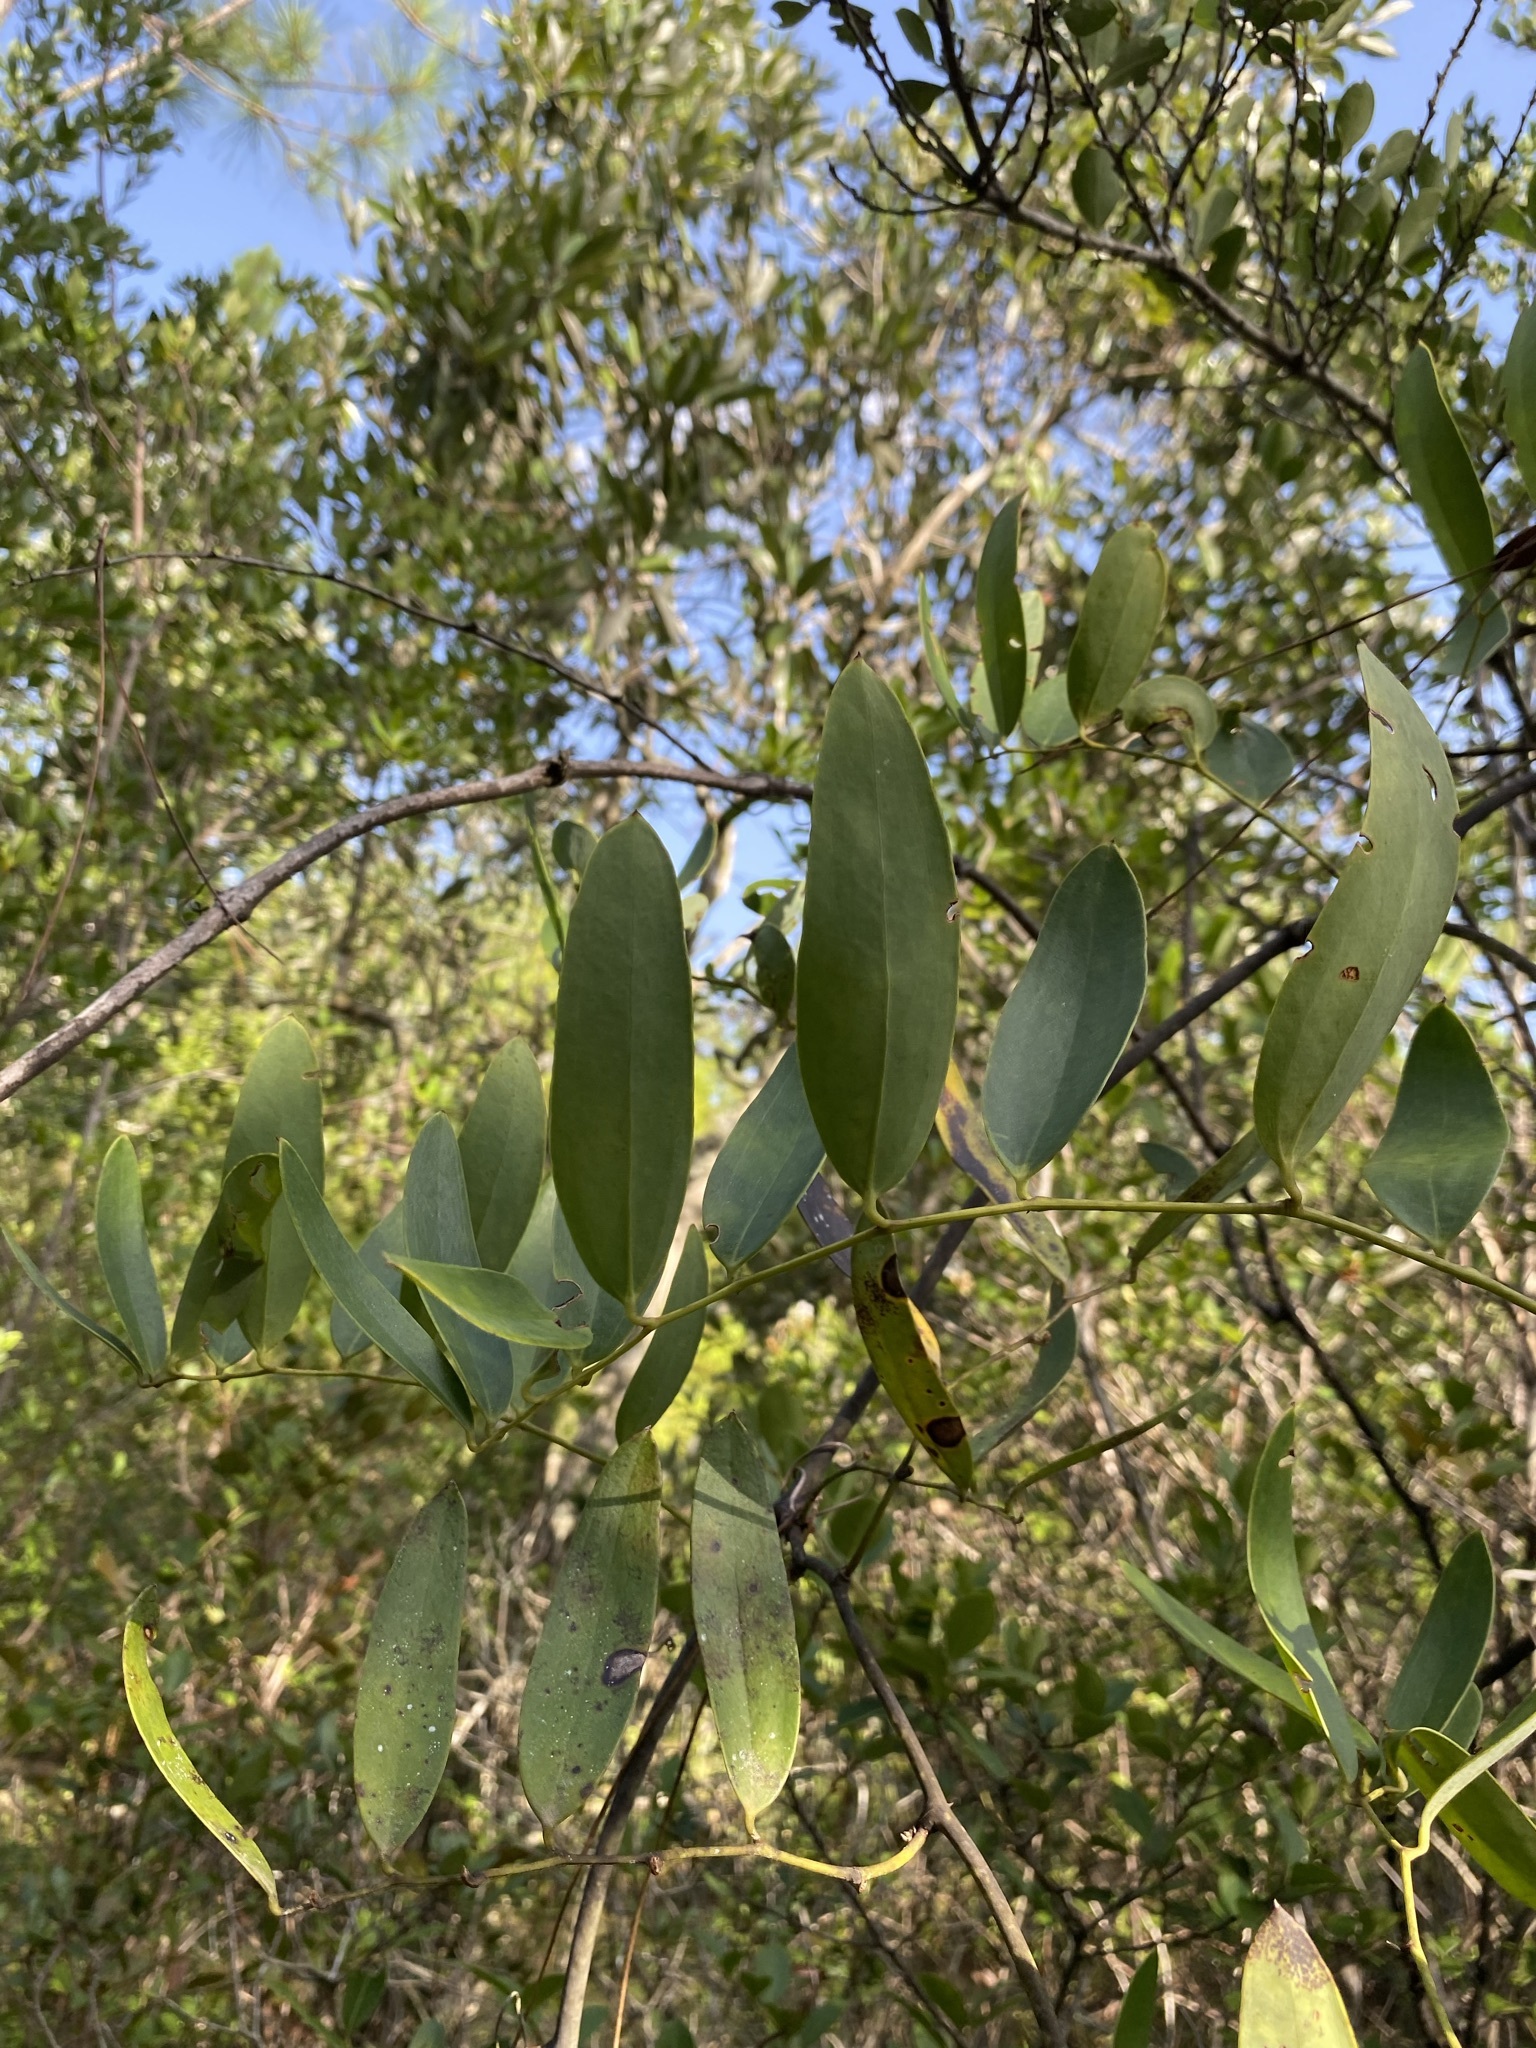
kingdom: Plantae
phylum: Tracheophyta
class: Liliopsida
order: Liliales
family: Smilacaceae
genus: Smilax
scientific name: Smilax laurifolia
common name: Bamboovine
